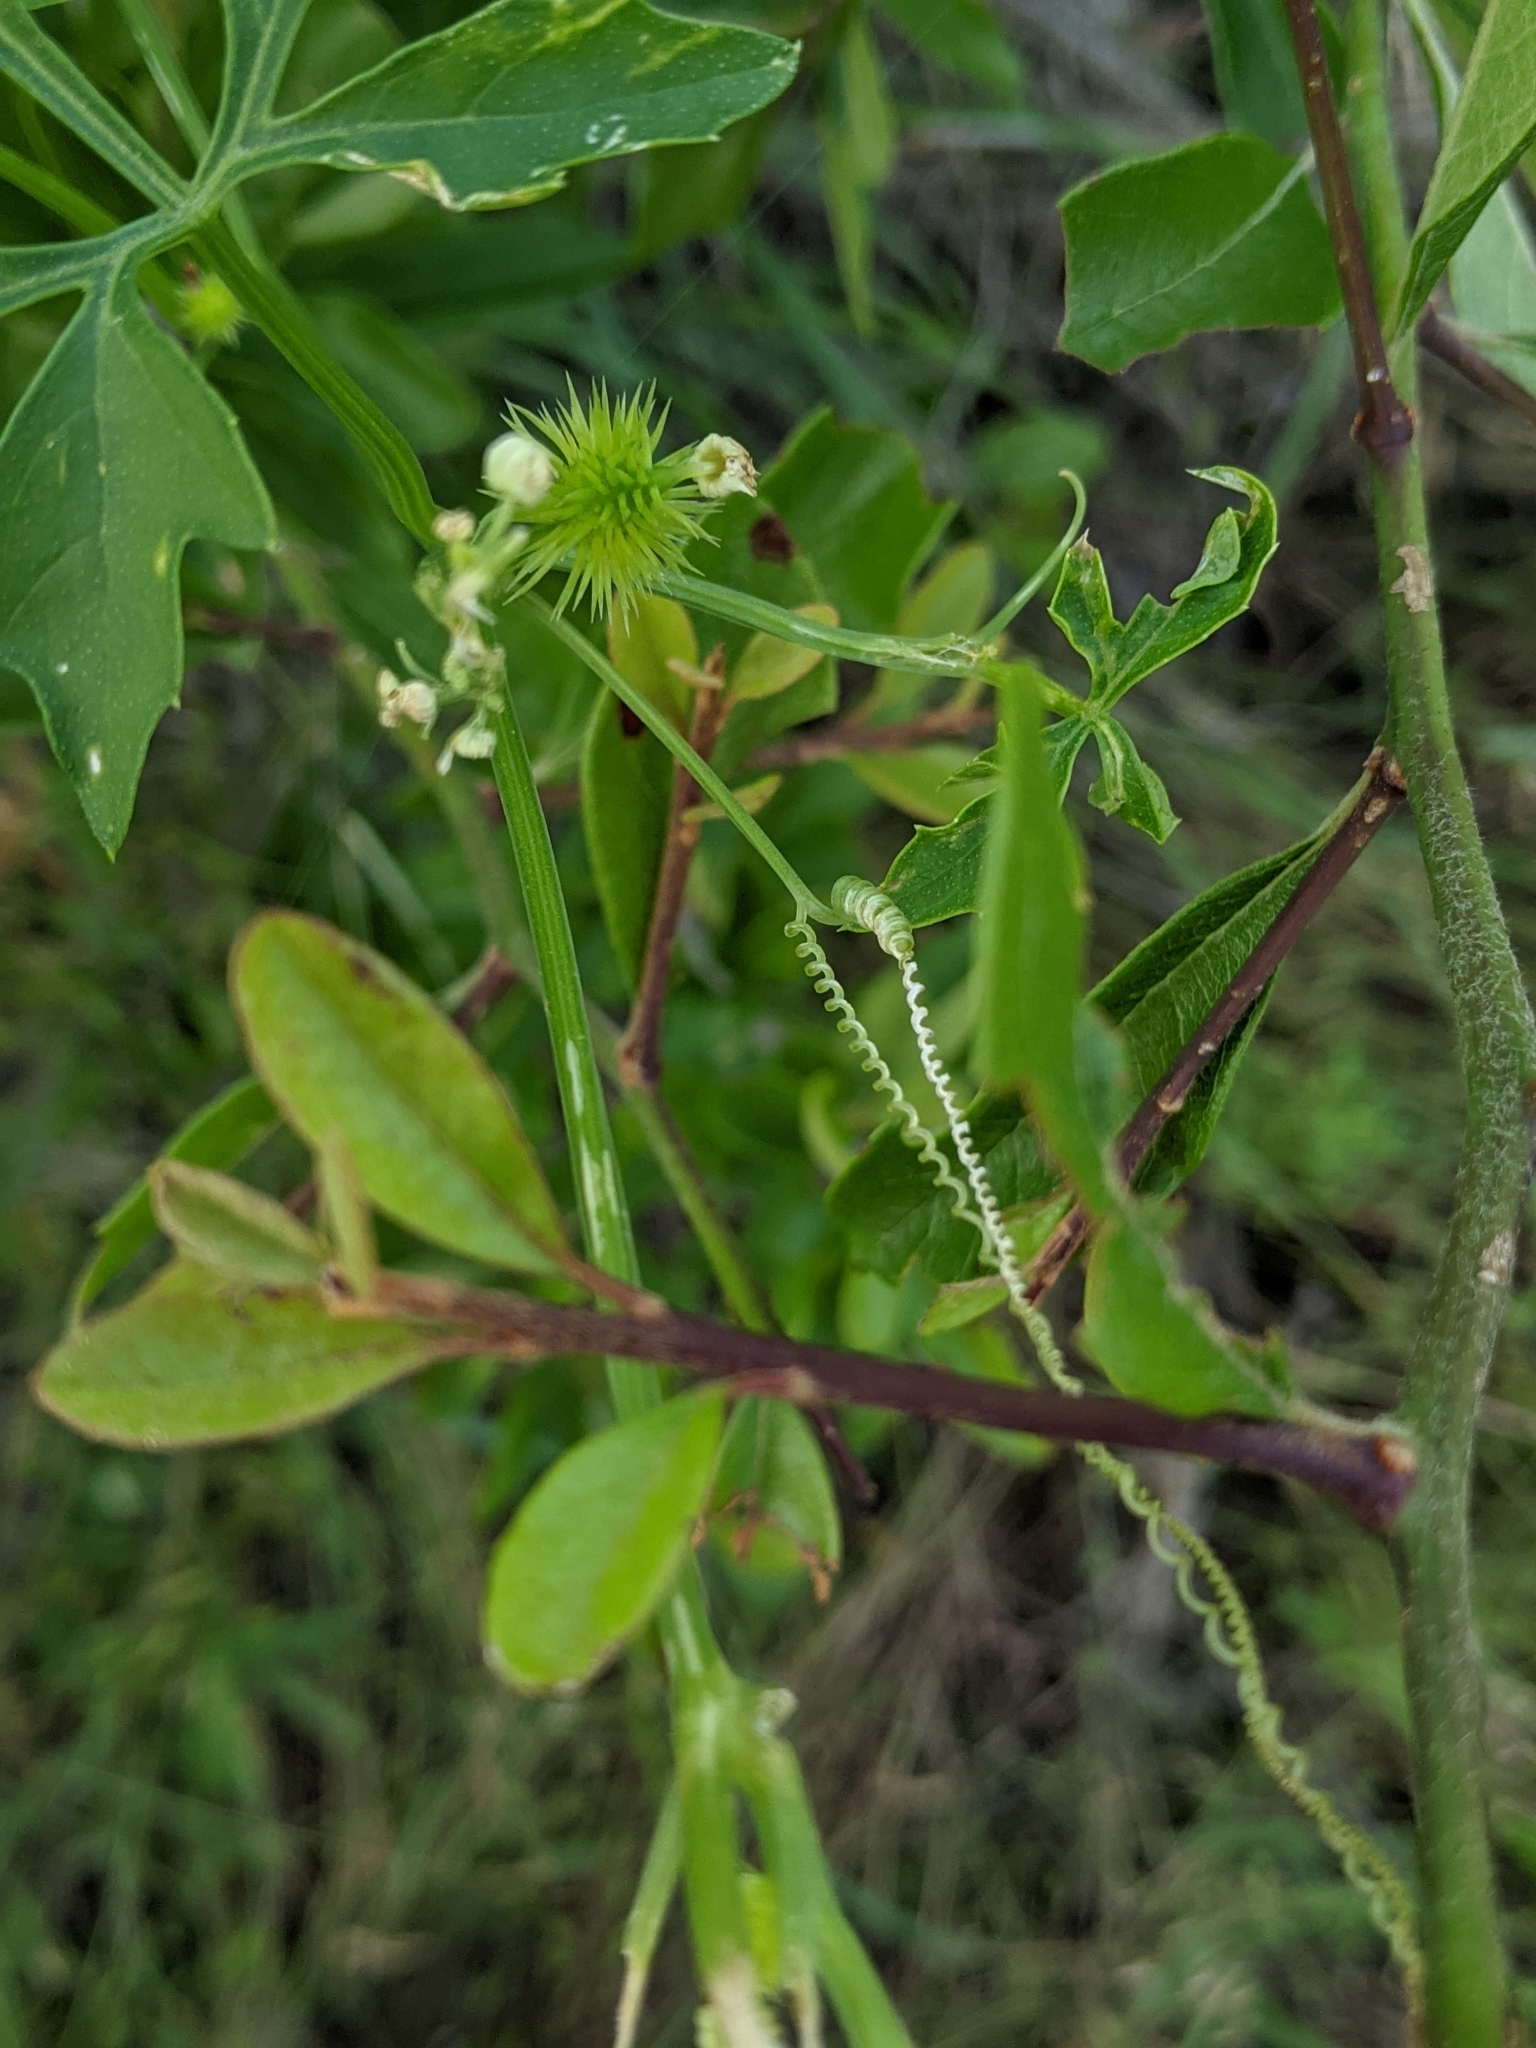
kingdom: Plantae
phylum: Tracheophyta
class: Magnoliopsida
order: Cucurbitales
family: Cucurbitaceae
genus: Cyclanthera
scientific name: Cyclanthera naudiniana
